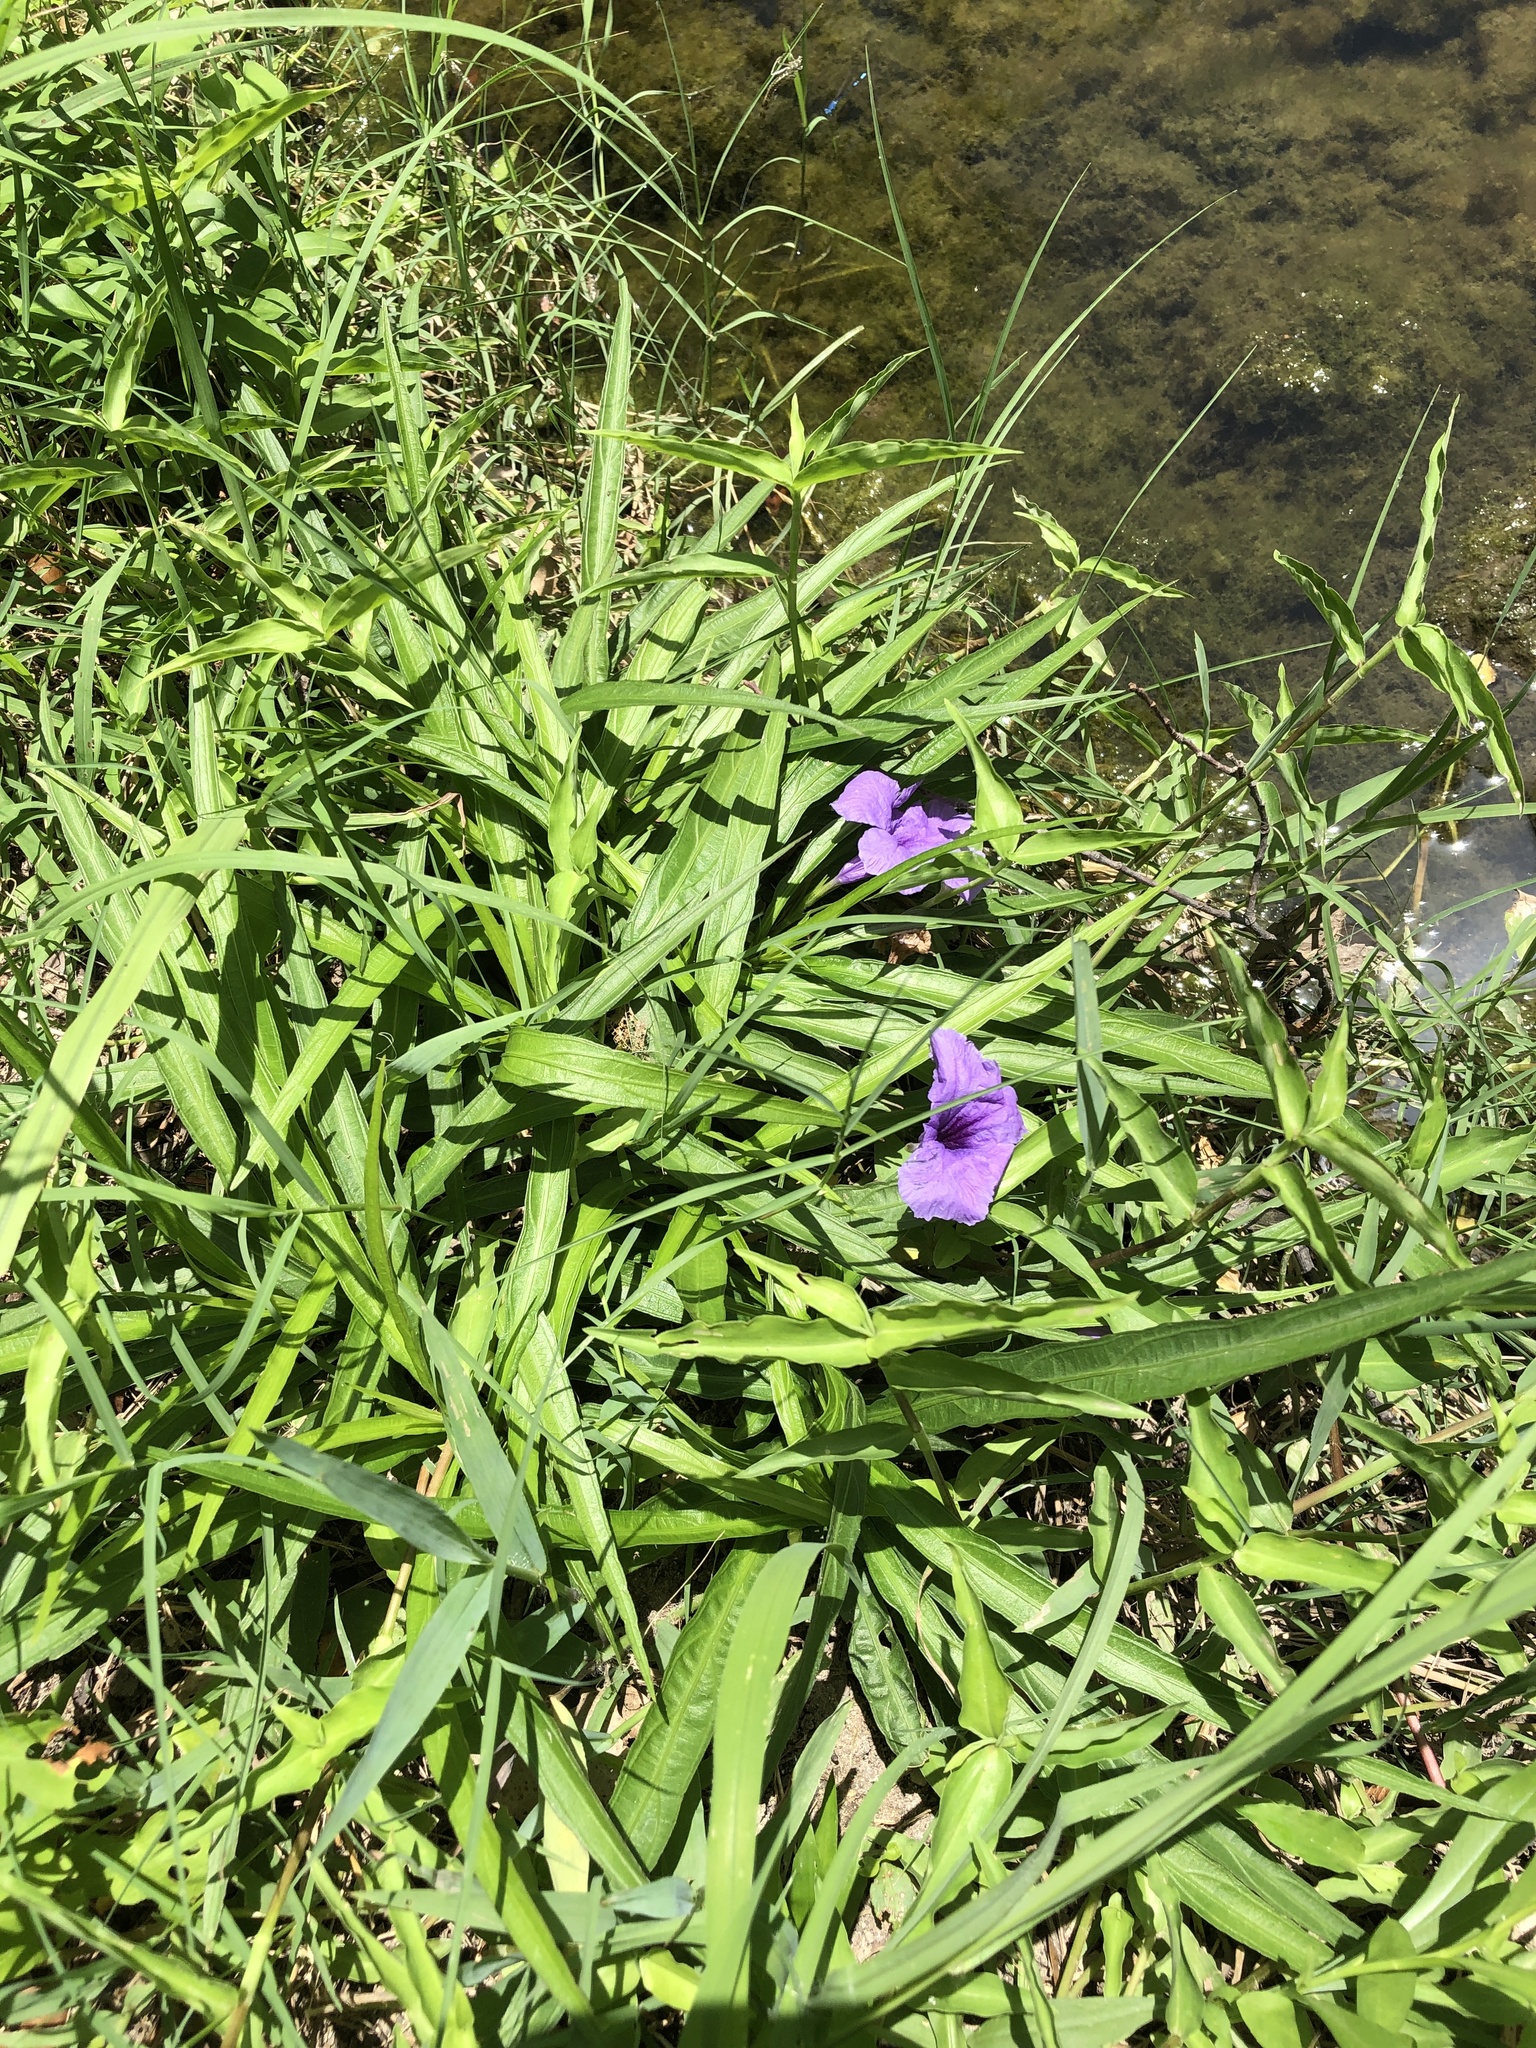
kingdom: Plantae
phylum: Tracheophyta
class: Magnoliopsida
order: Lamiales
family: Acanthaceae
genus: Ruellia
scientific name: Ruellia simplex
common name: Softseed wild petunia
